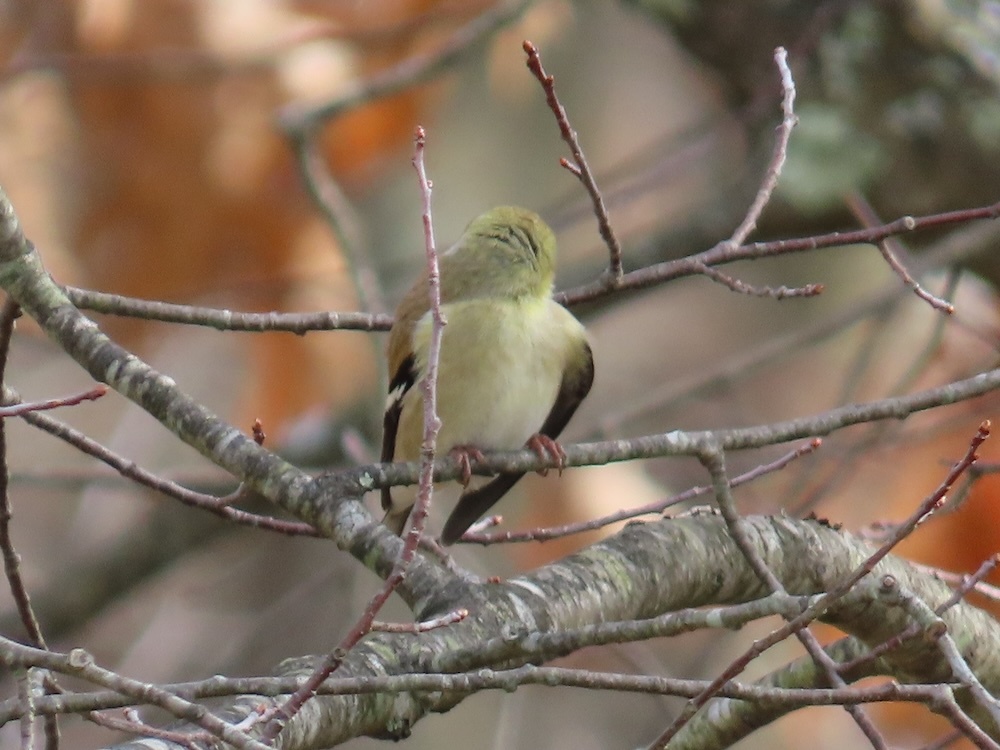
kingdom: Animalia
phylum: Chordata
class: Aves
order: Passeriformes
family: Fringillidae
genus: Spinus
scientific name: Spinus tristis
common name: American goldfinch
